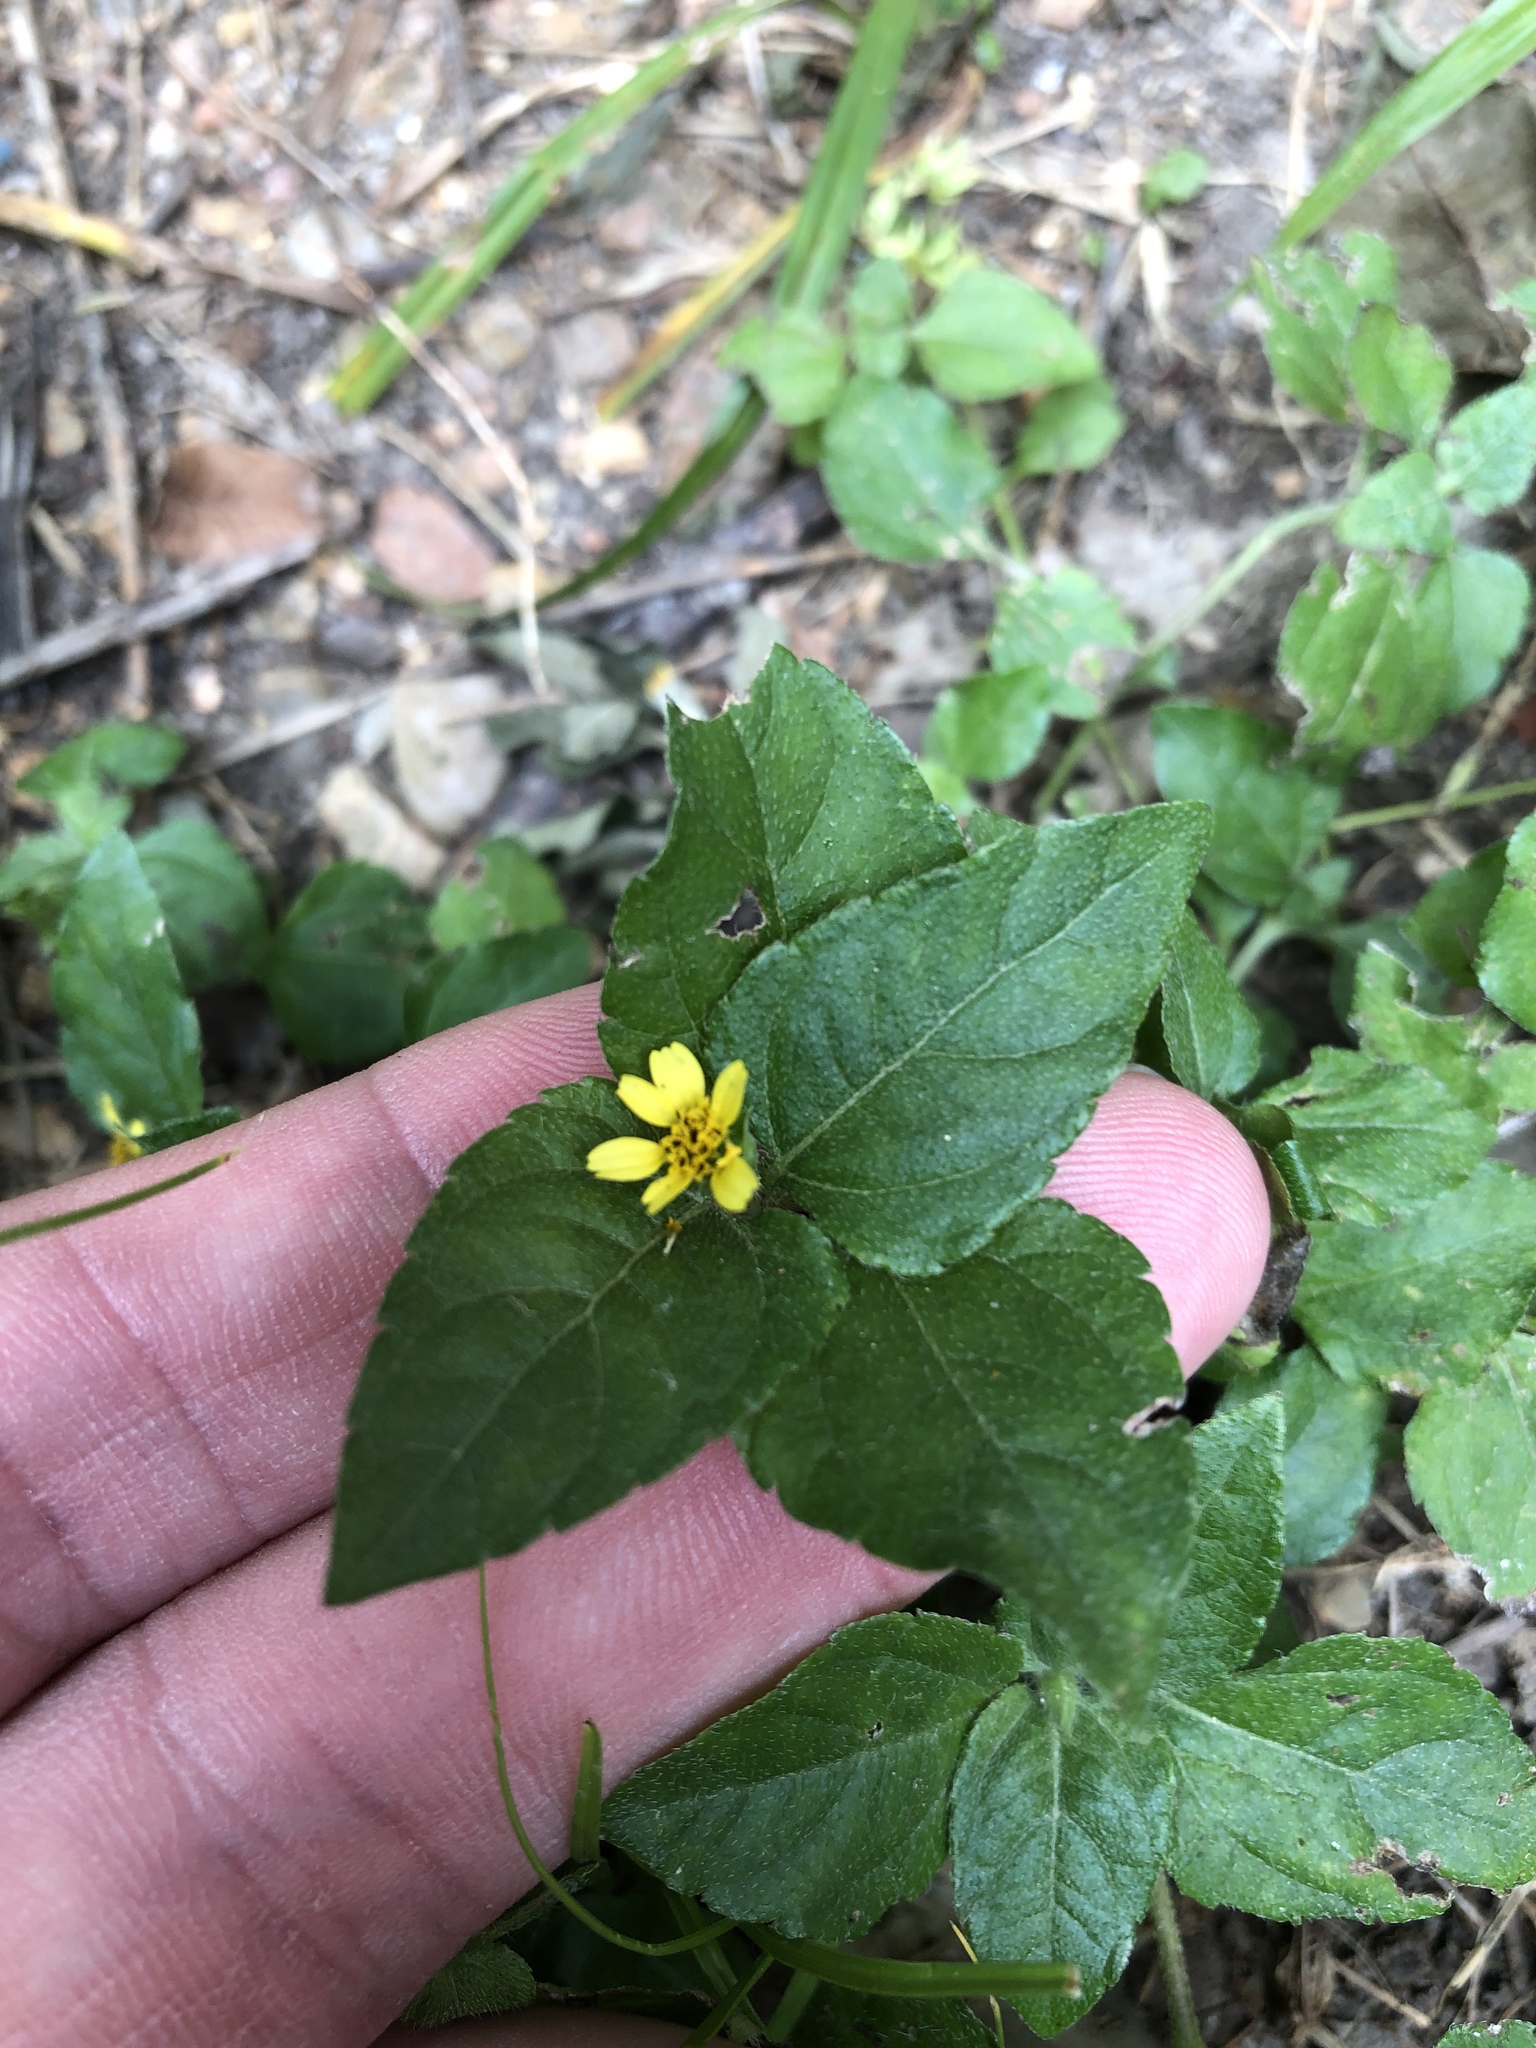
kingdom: Plantae
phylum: Tracheophyta
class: Magnoliopsida
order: Asterales
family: Asteraceae
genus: Calyptocarpus
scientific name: Calyptocarpus vialis
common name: Straggler daisy
